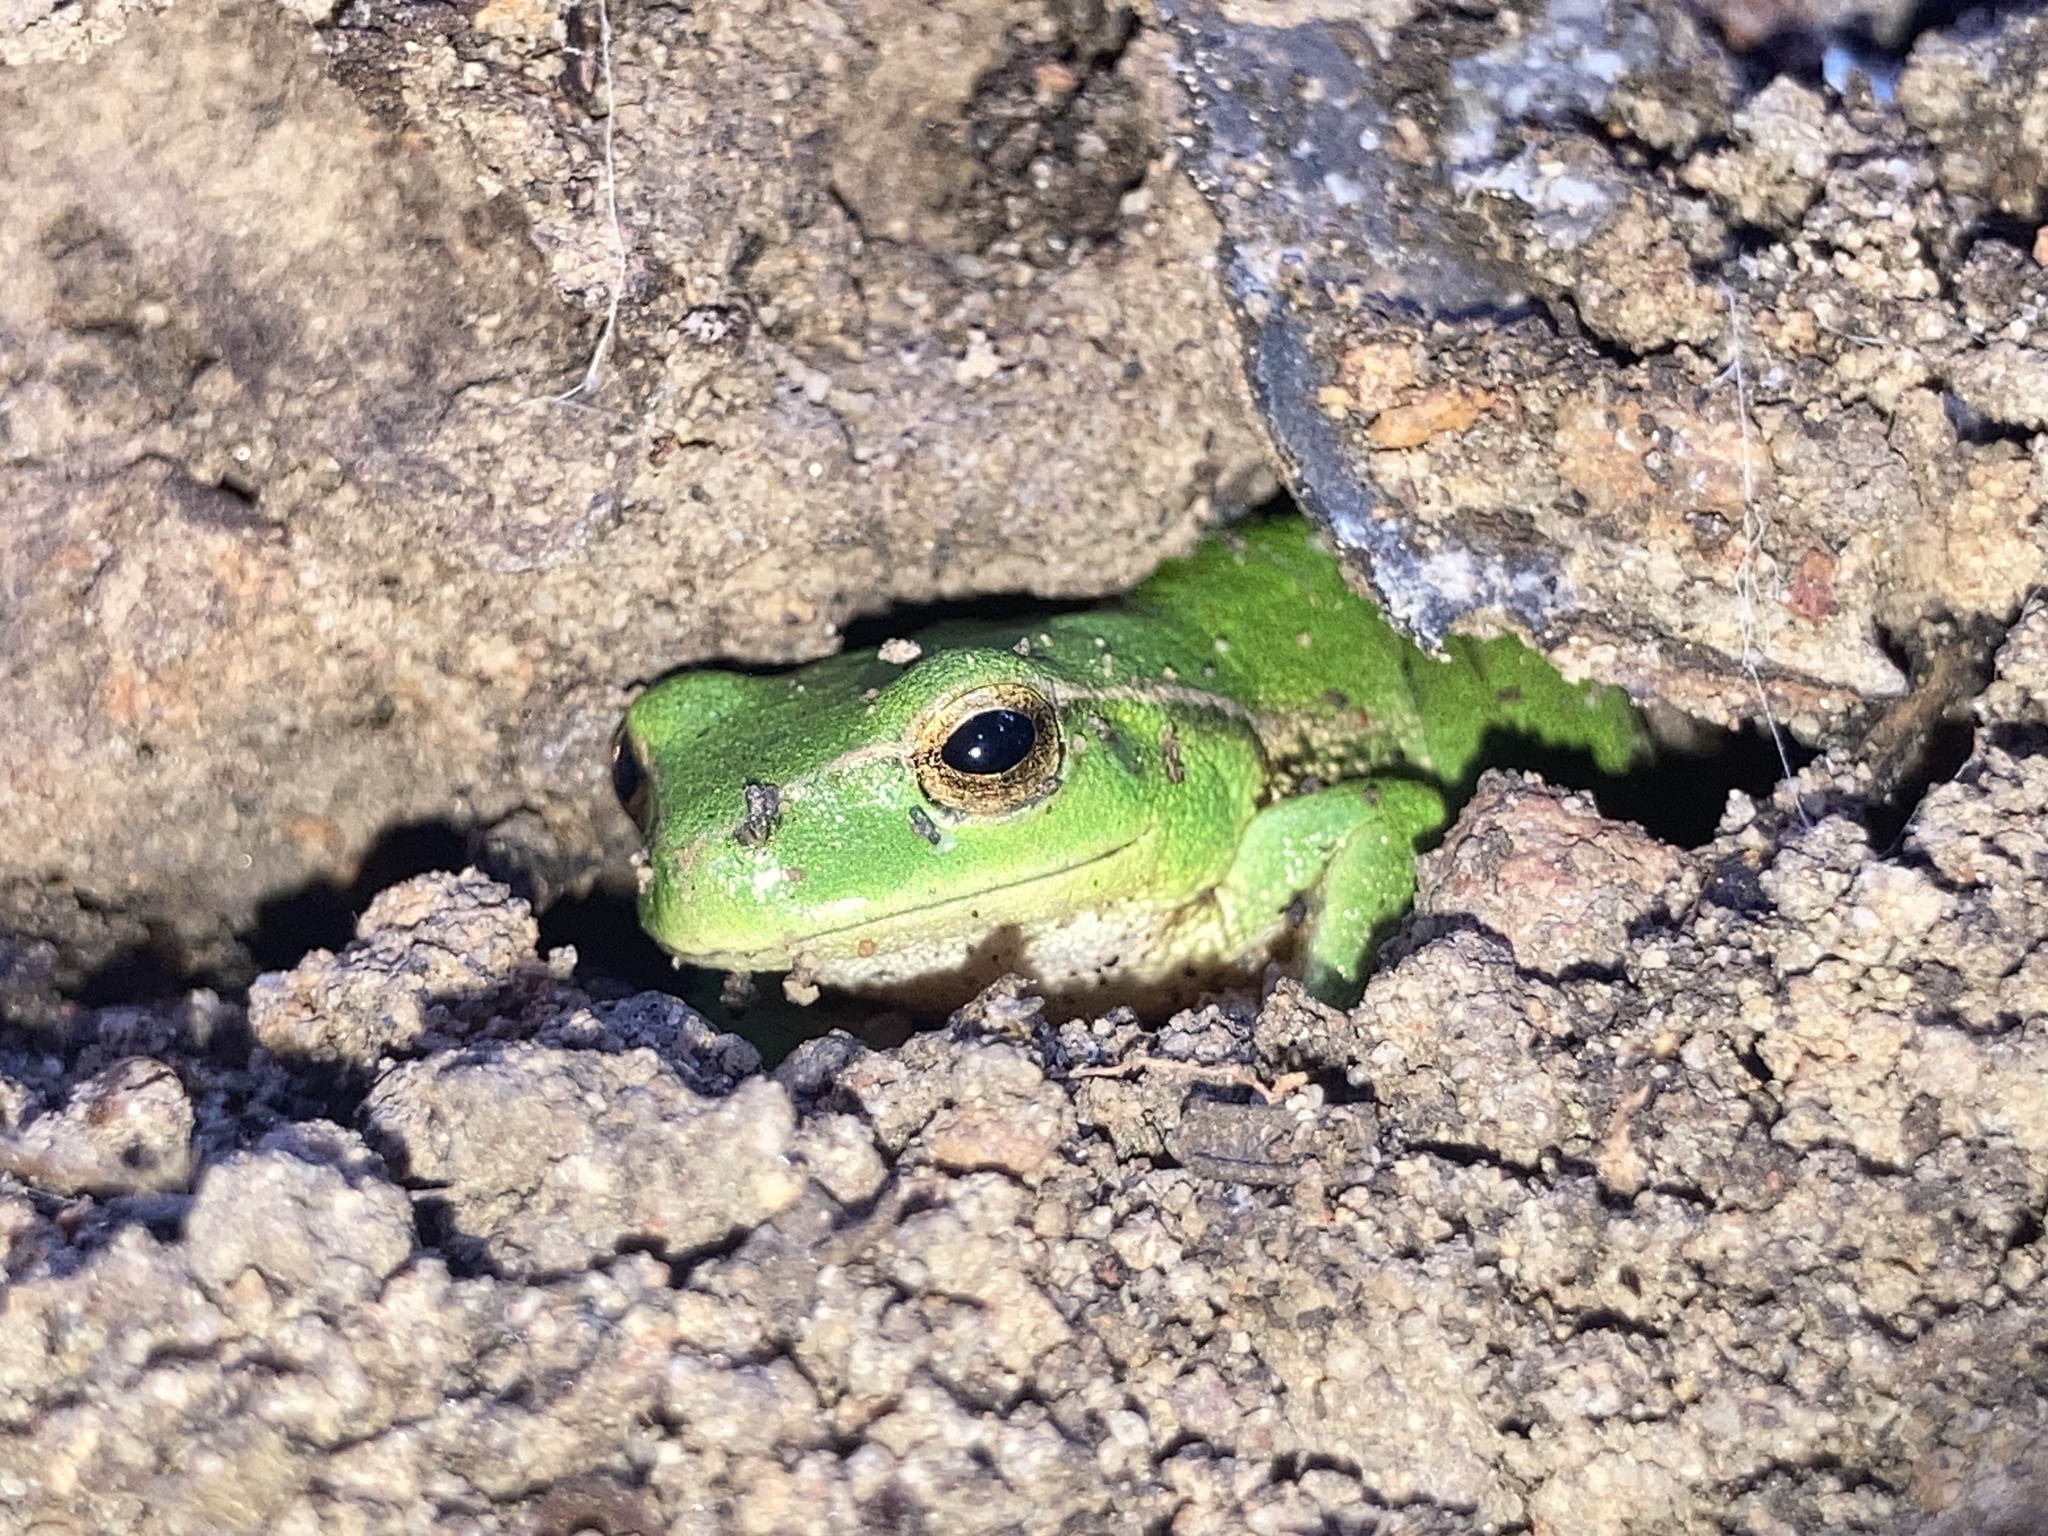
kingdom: Animalia
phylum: Chordata
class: Amphibia
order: Anura
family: Pelodryadidae
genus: Ranoidea
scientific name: Ranoidea nudidigita
